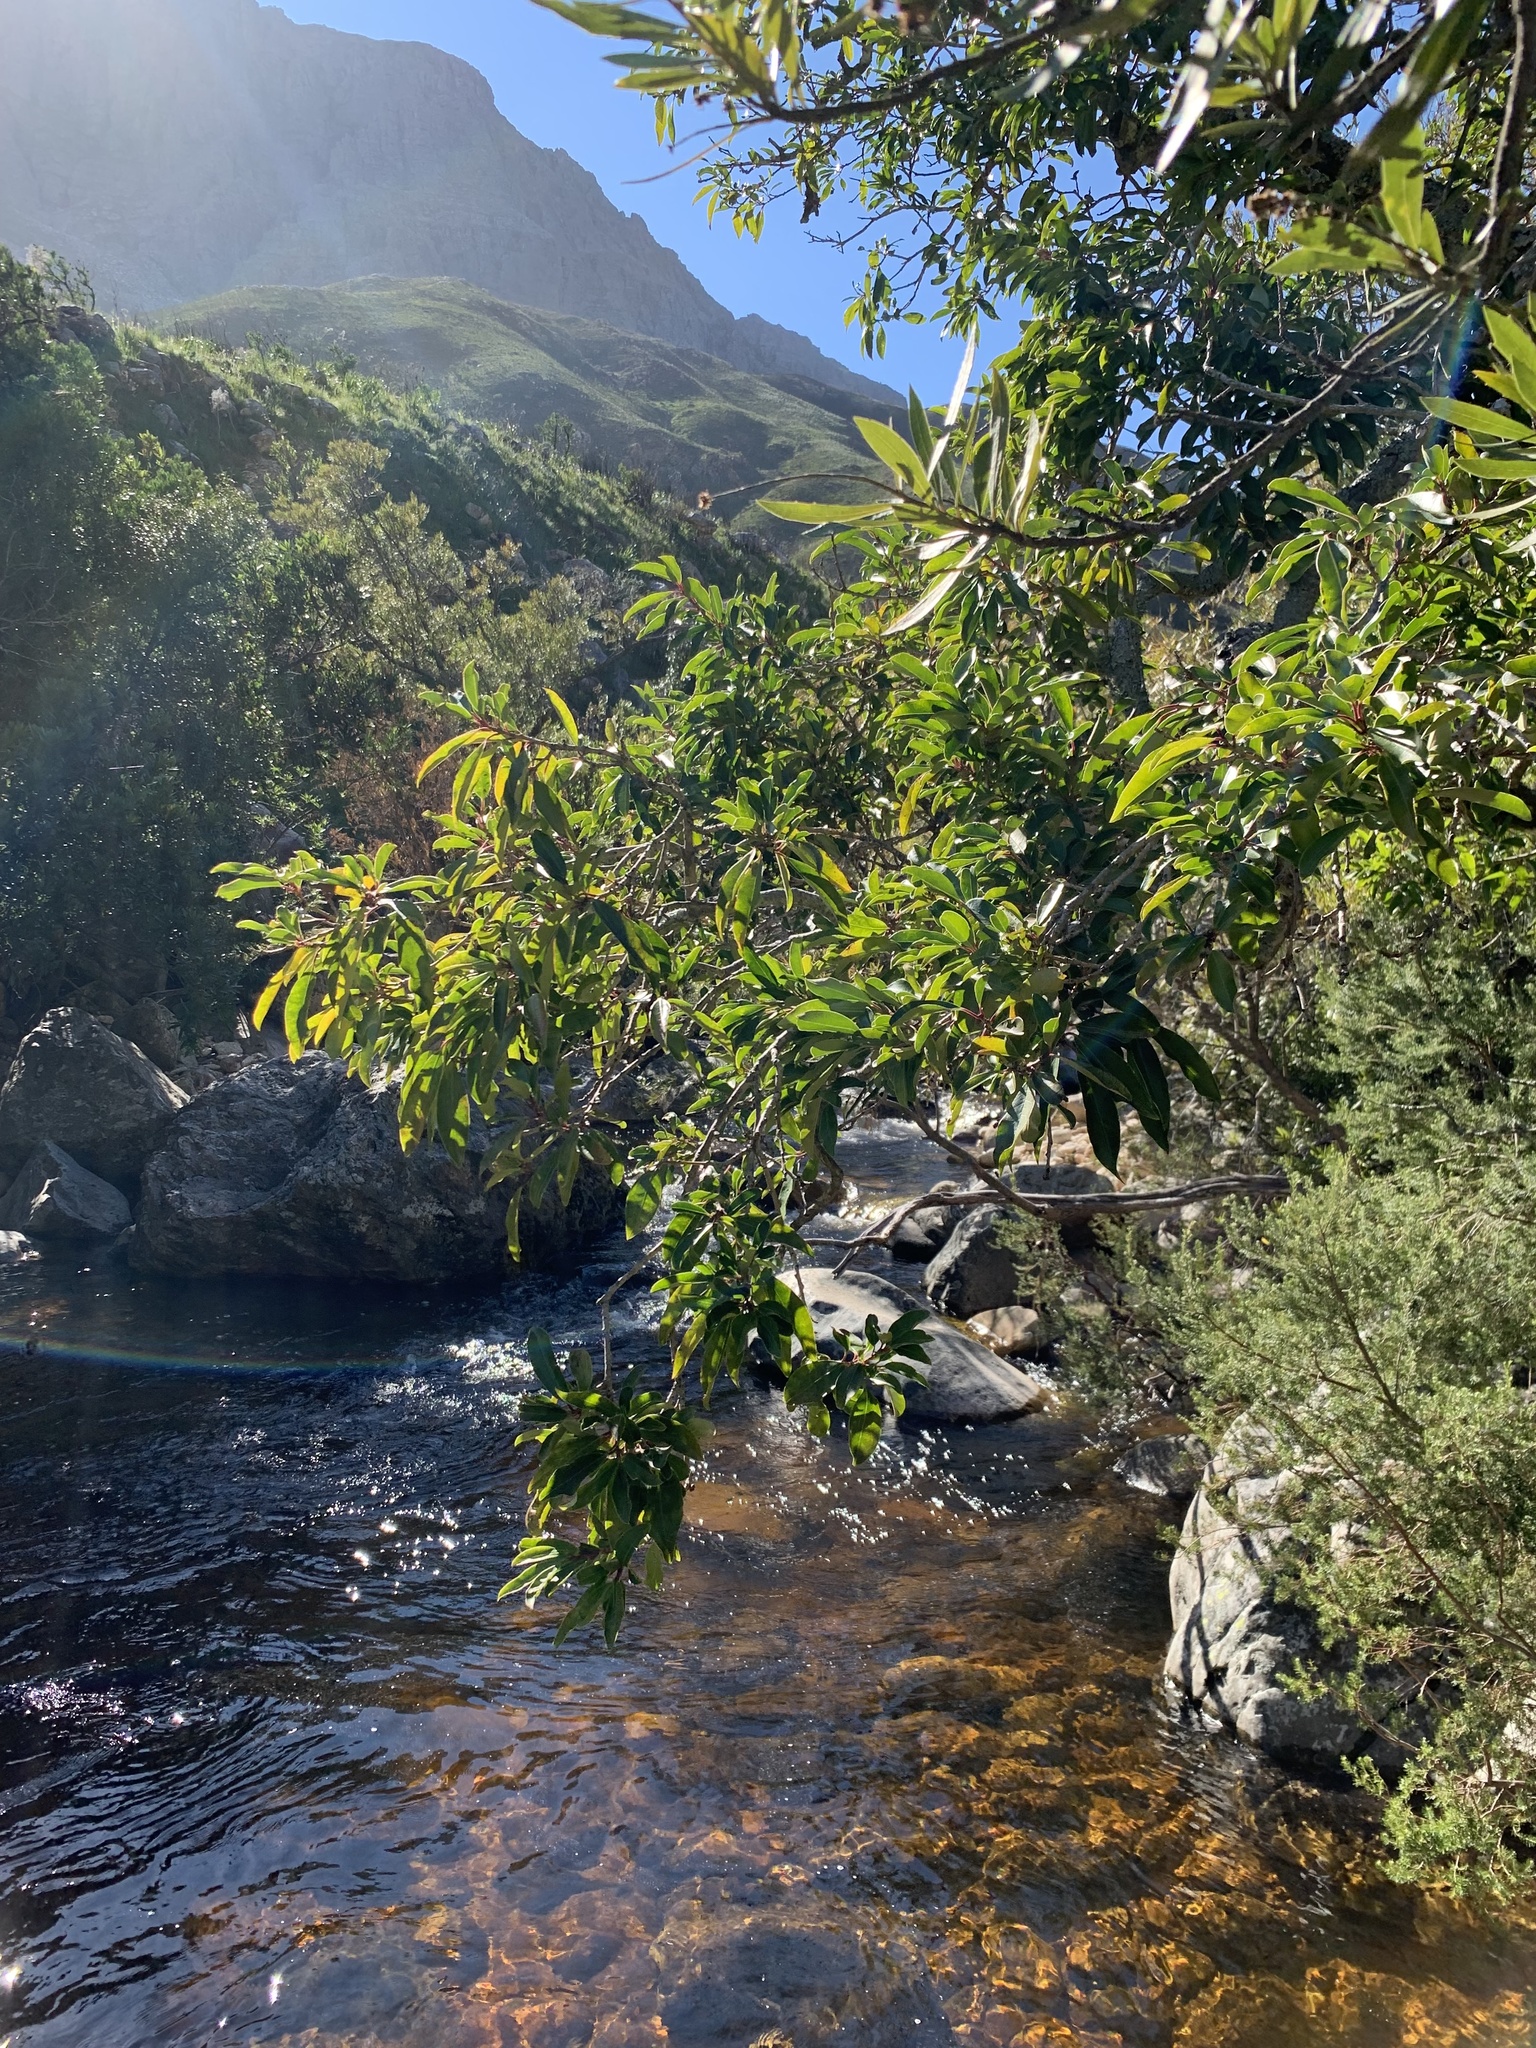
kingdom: Plantae
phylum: Tracheophyta
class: Magnoliopsida
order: Aquifoliales
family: Aquifoliaceae
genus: Ilex
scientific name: Ilex mitis
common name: African holly
